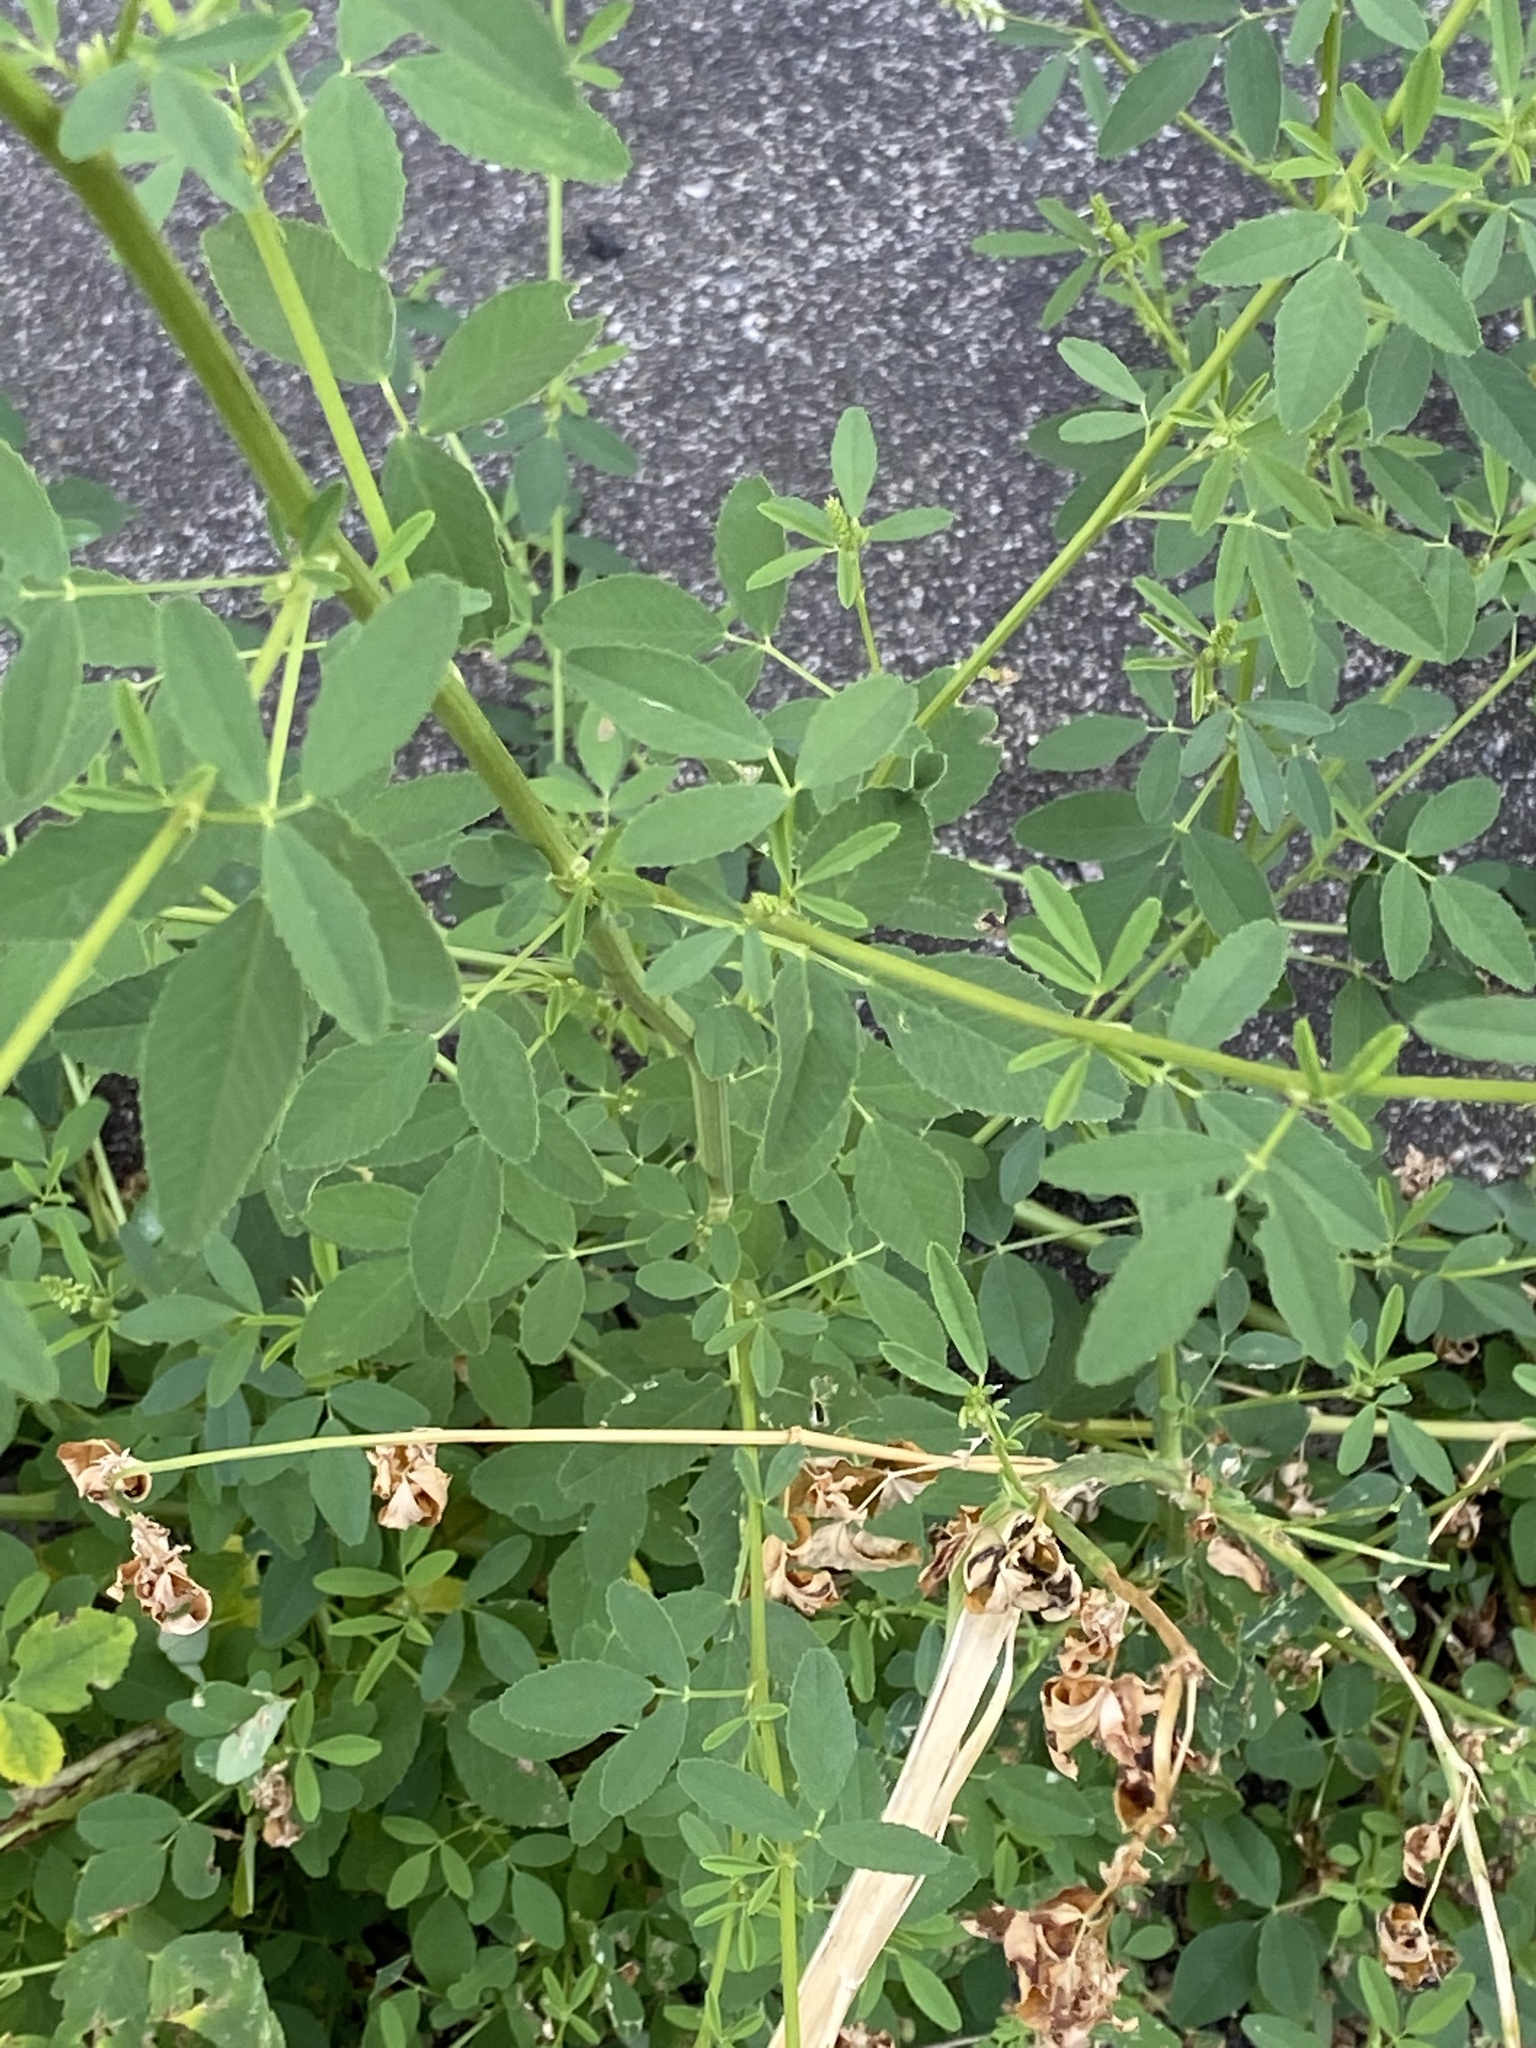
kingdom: Plantae
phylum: Tracheophyta
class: Magnoliopsida
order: Fabales
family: Fabaceae
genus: Melilotus
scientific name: Melilotus albus
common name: White melilot
